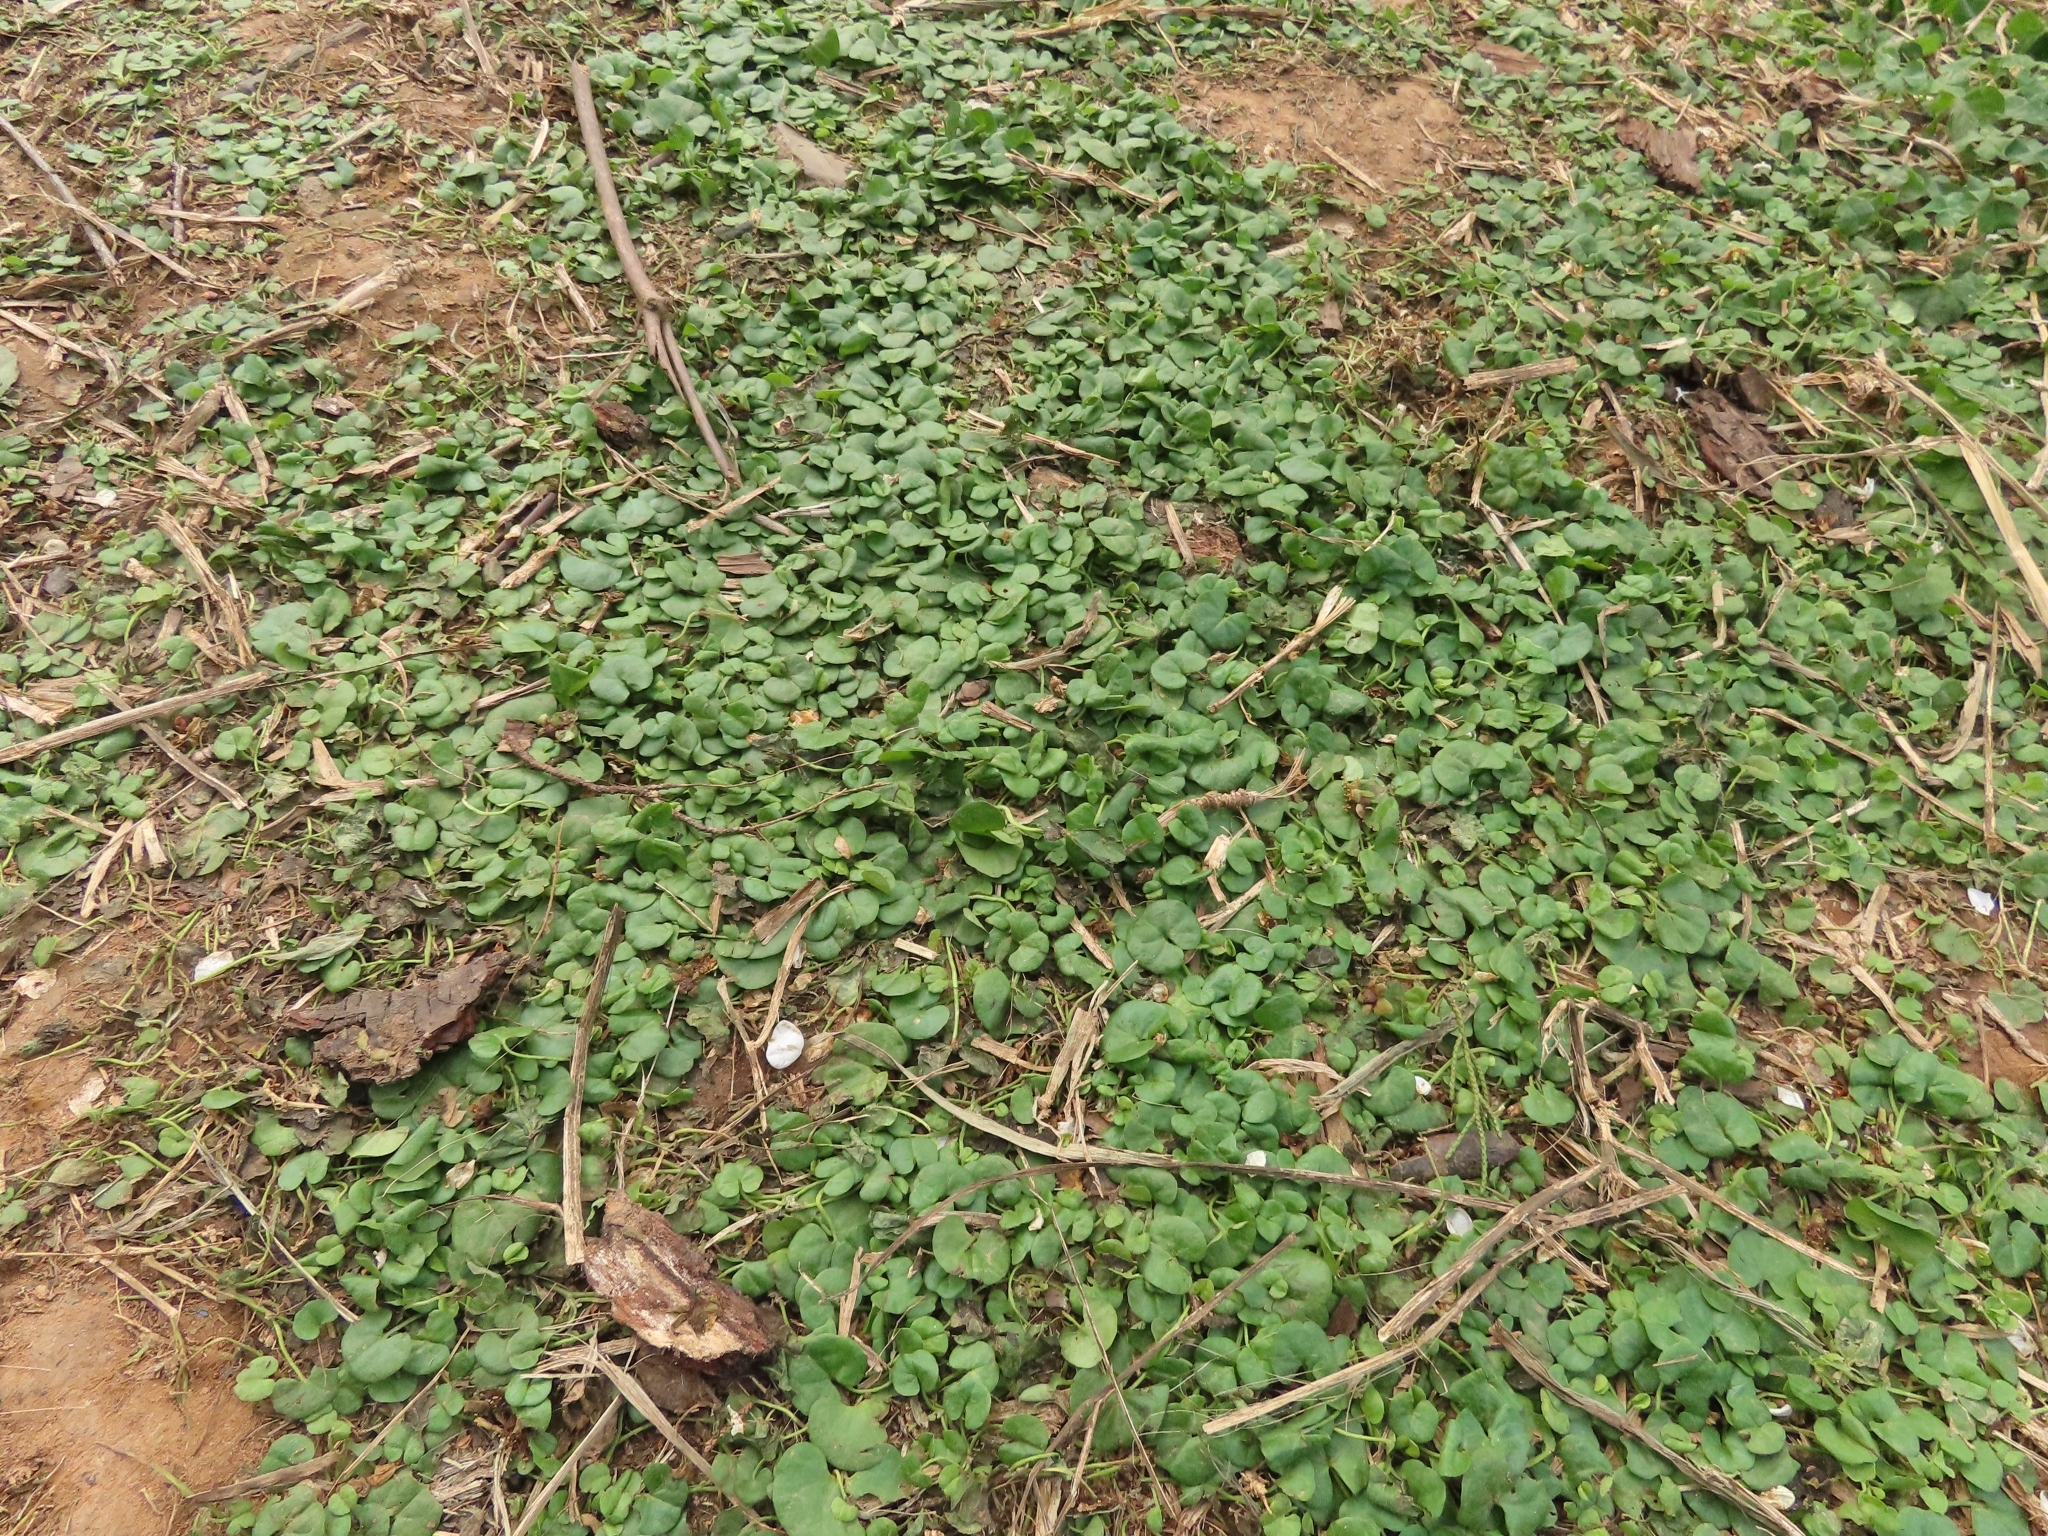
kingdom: Plantae
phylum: Tracheophyta
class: Magnoliopsida
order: Solanales
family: Convolvulaceae
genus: Dichondra
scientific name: Dichondra micrantha
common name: Kidneyweed
